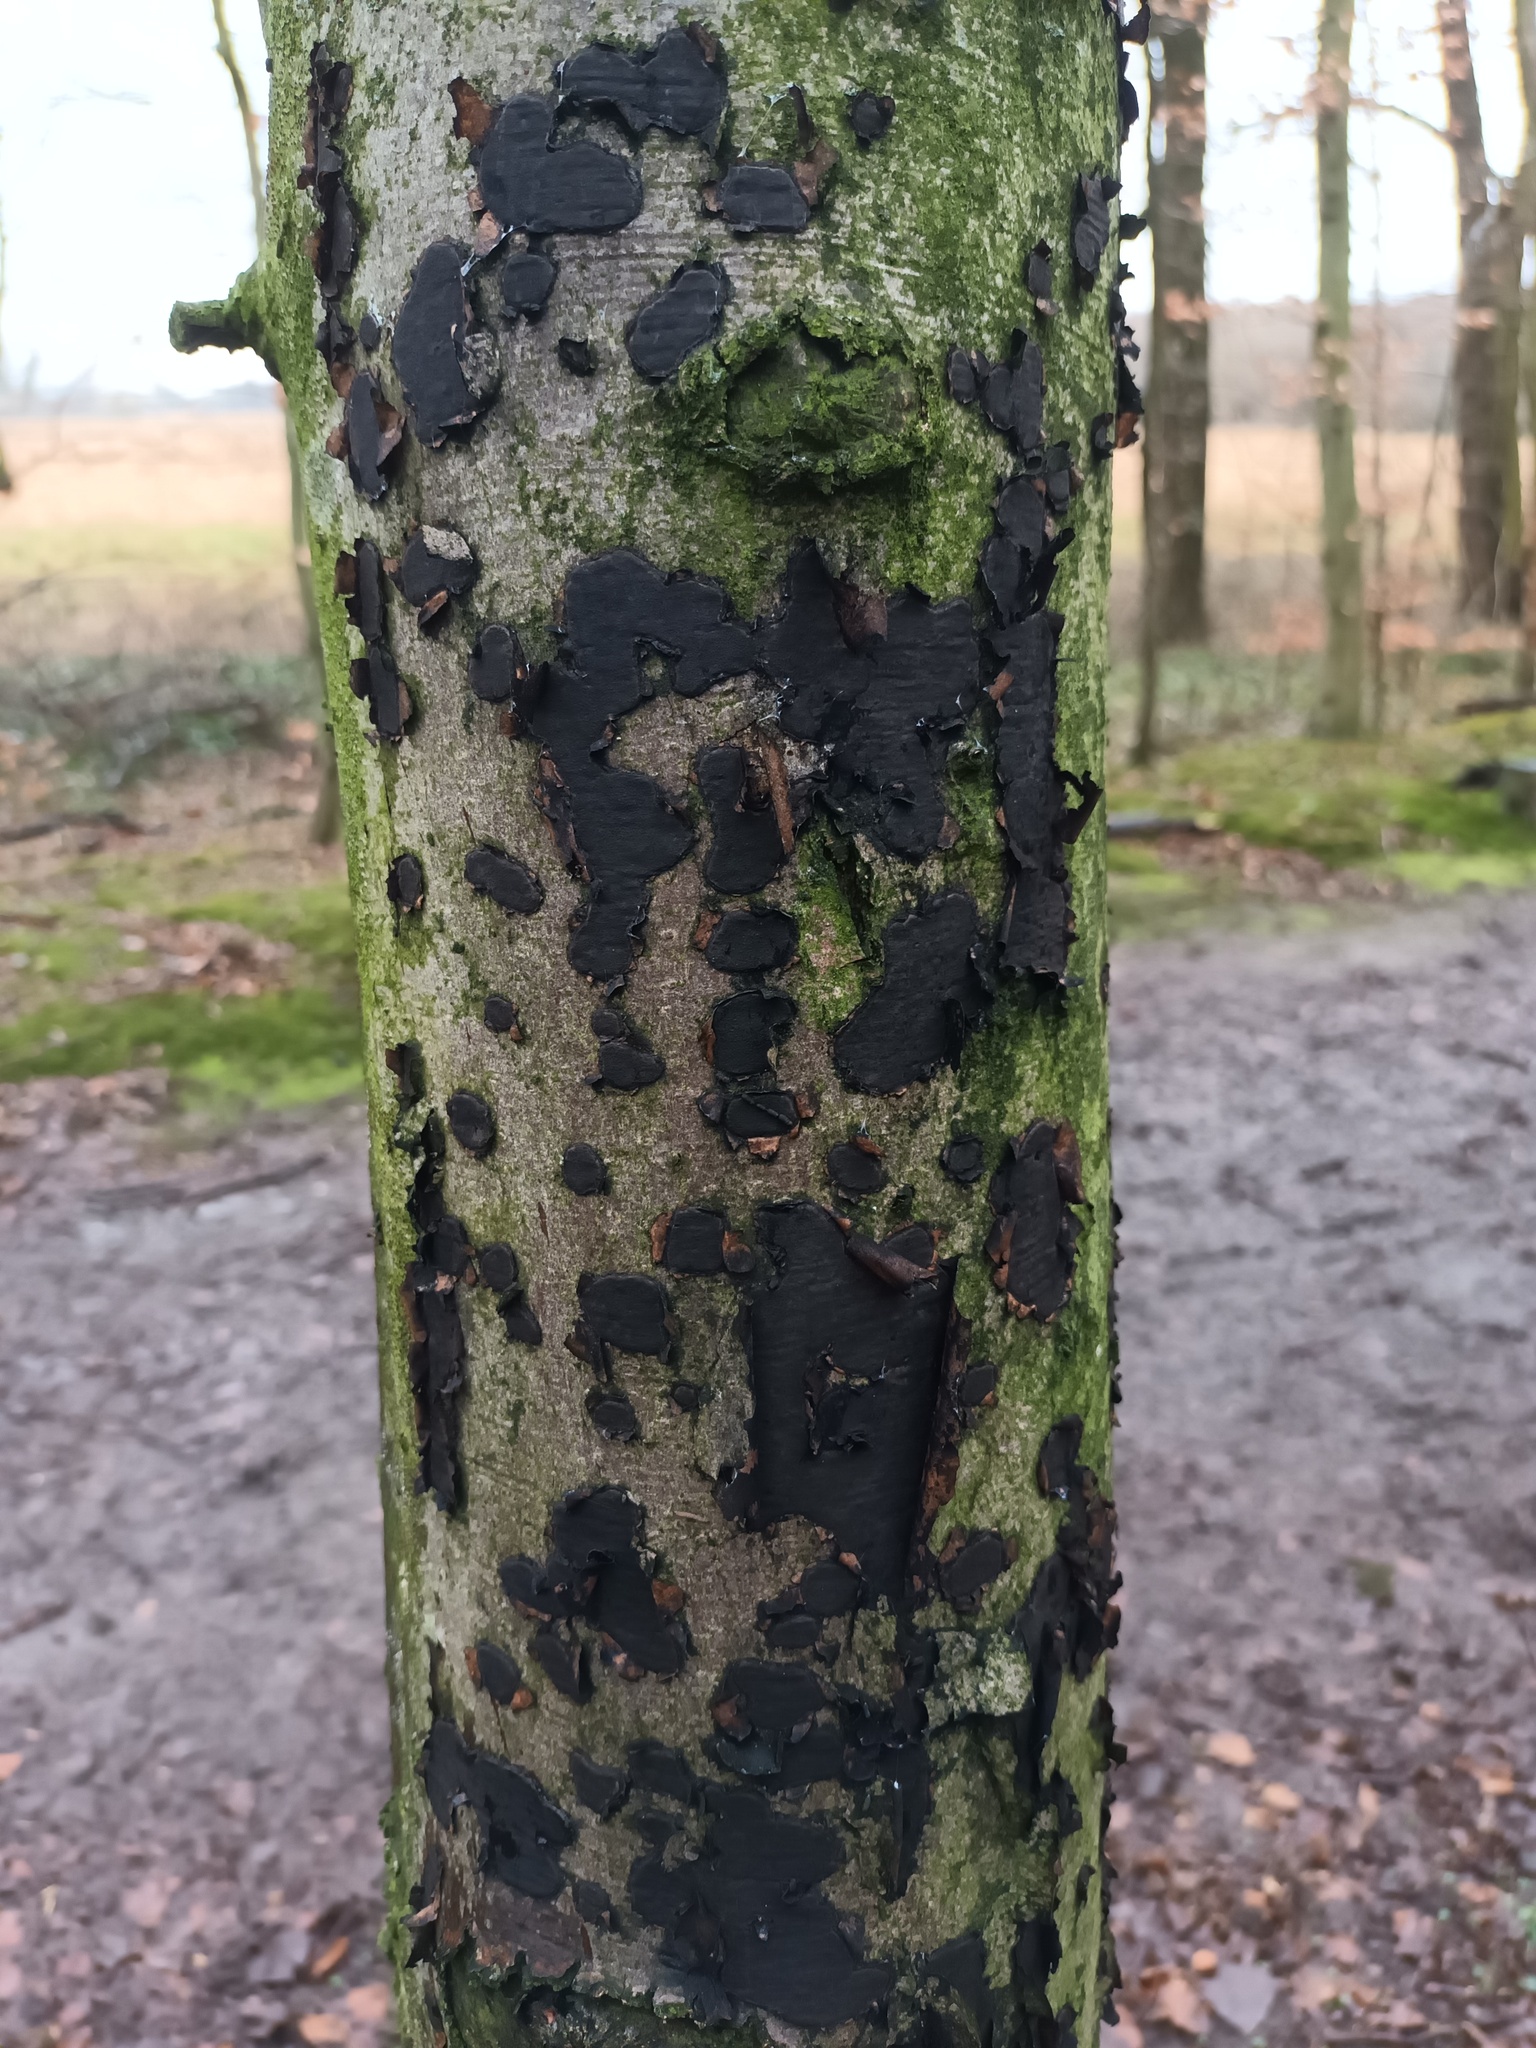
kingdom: Fungi
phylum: Ascomycota
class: Sordariomycetes
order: Xylariales
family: Graphostromataceae
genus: Biscogniauxia
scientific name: Biscogniauxia nummularia
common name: Beech tarcrust
